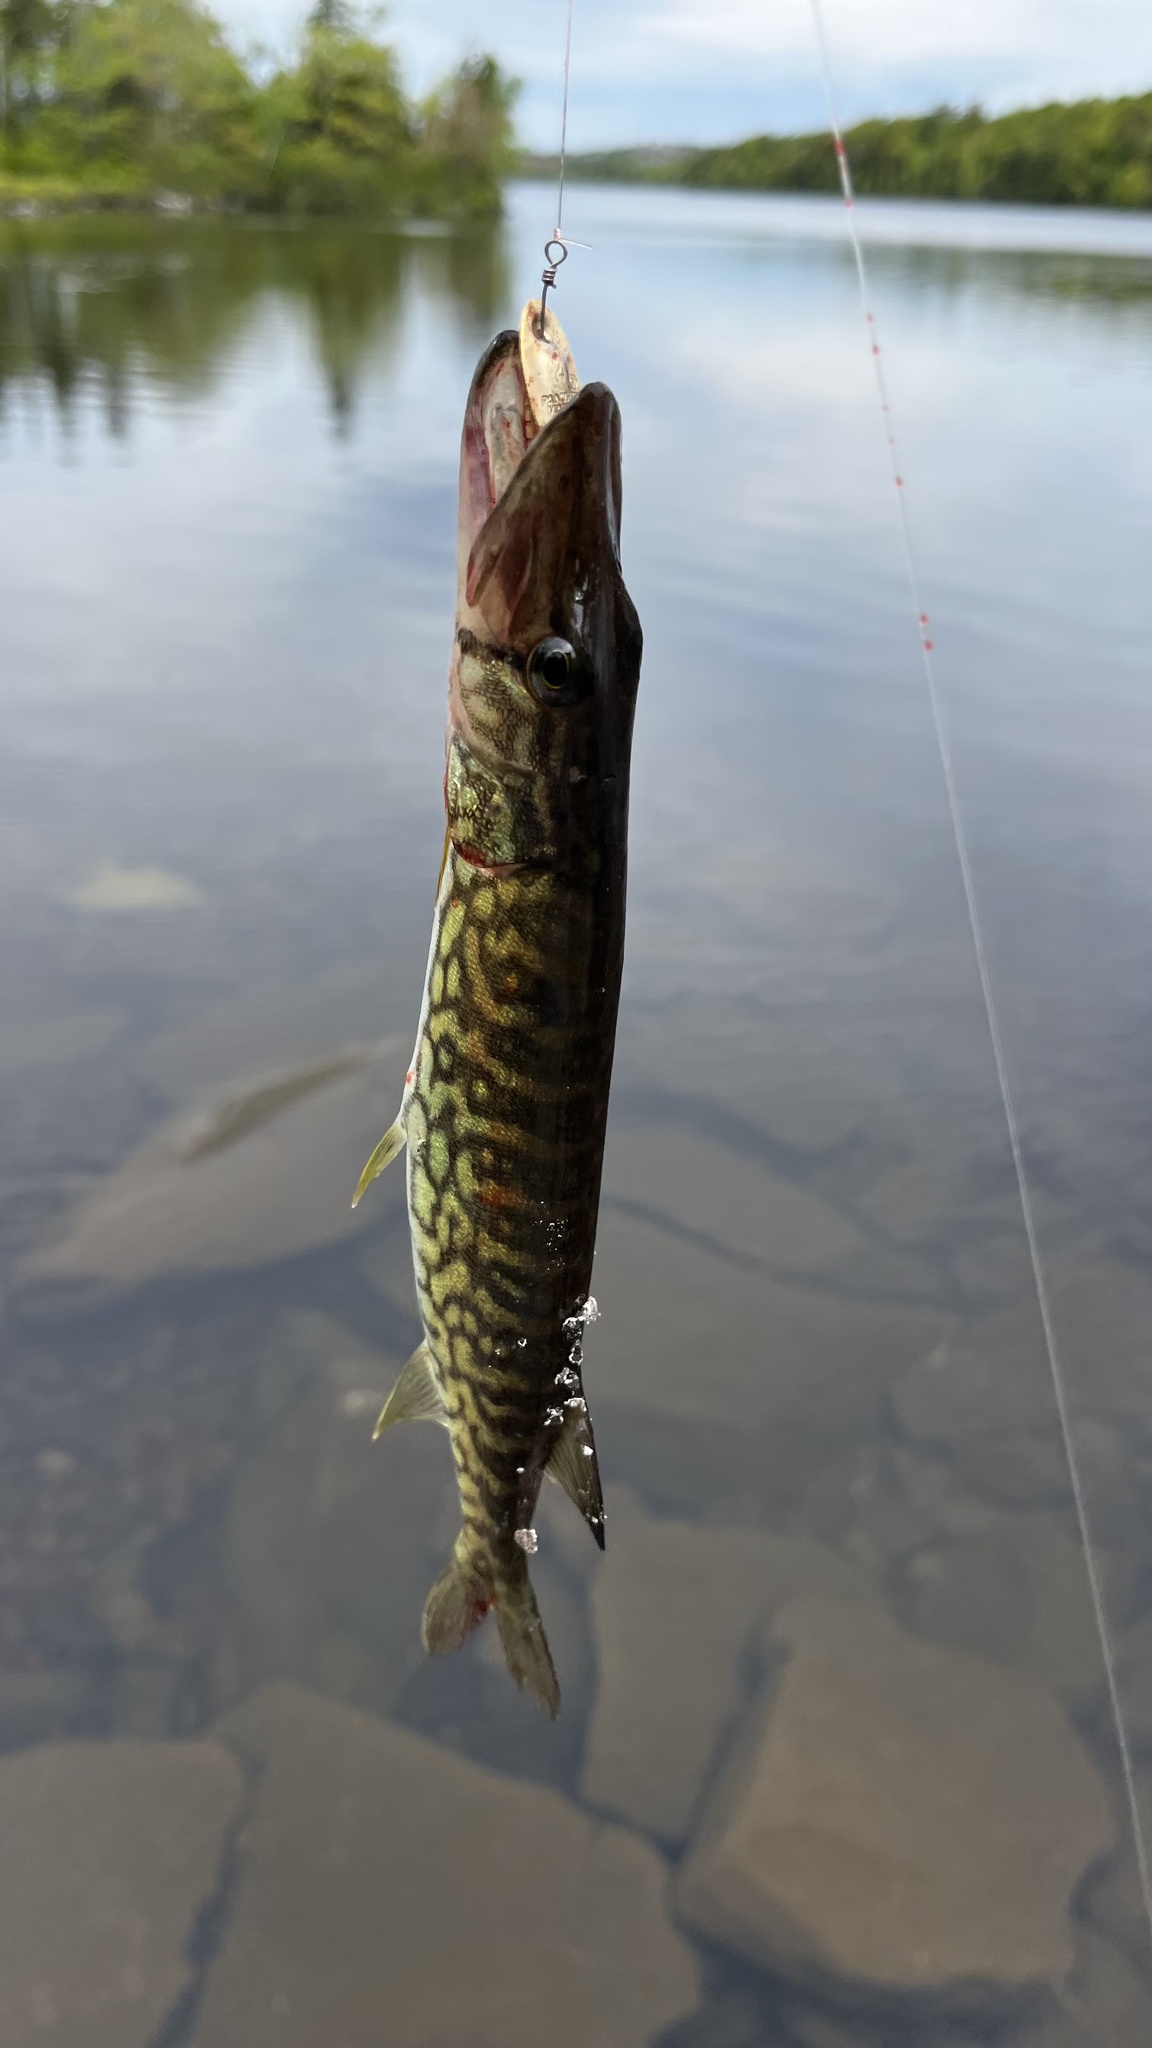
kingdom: Animalia
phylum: Chordata
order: Esociformes
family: Esocidae
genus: Esox
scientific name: Esox niger
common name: Chain pickerel
